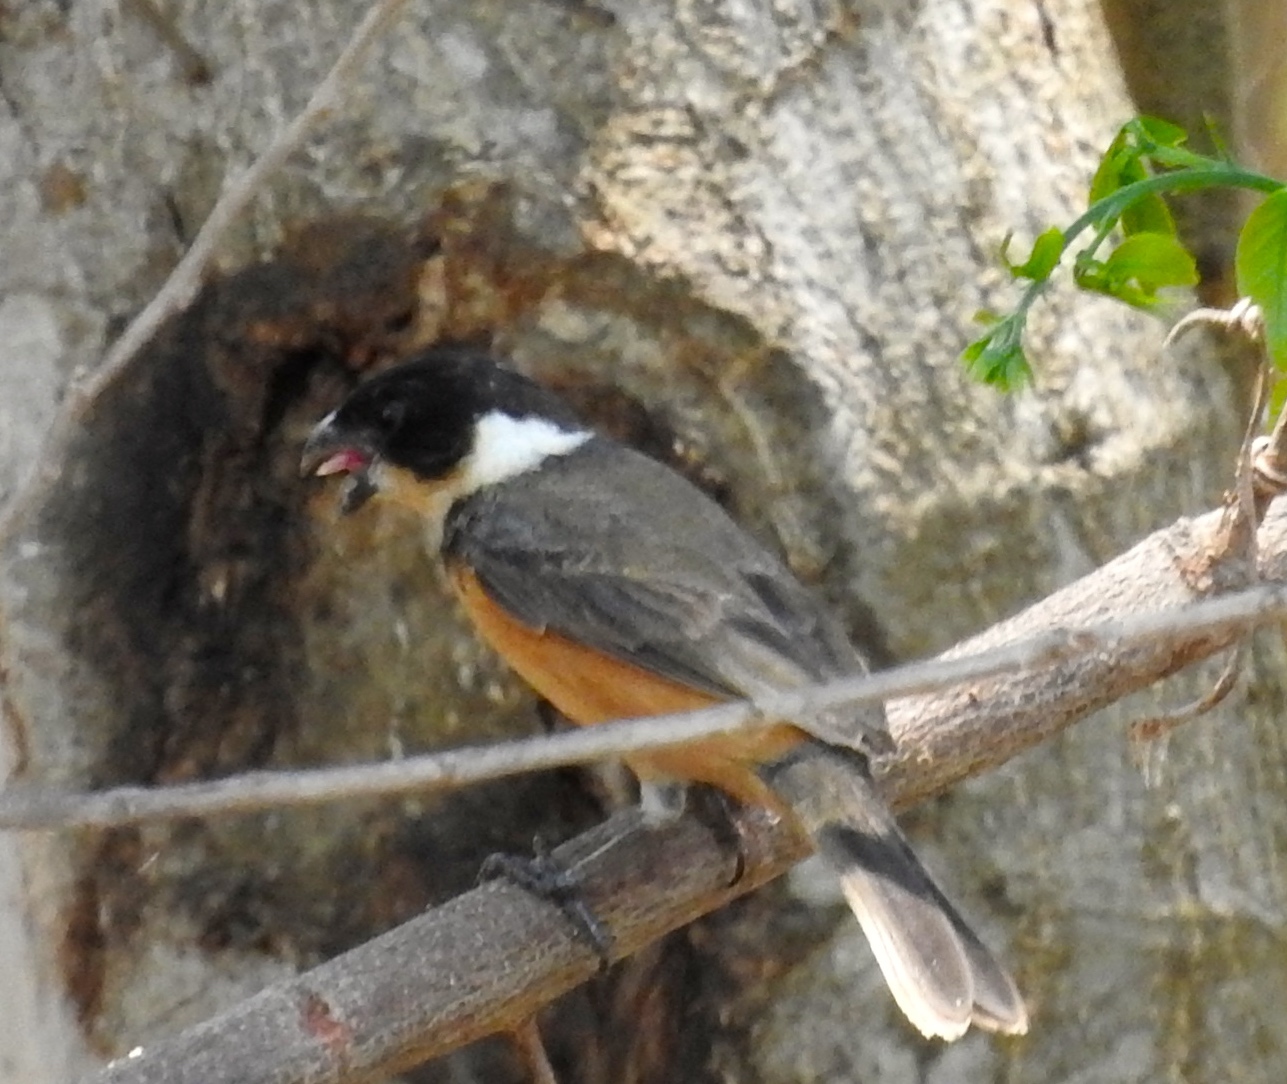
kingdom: Animalia
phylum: Chordata
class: Aves
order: Passeriformes
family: Thraupidae
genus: Sporophila
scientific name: Sporophila torqueola
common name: White-collared seedeater
